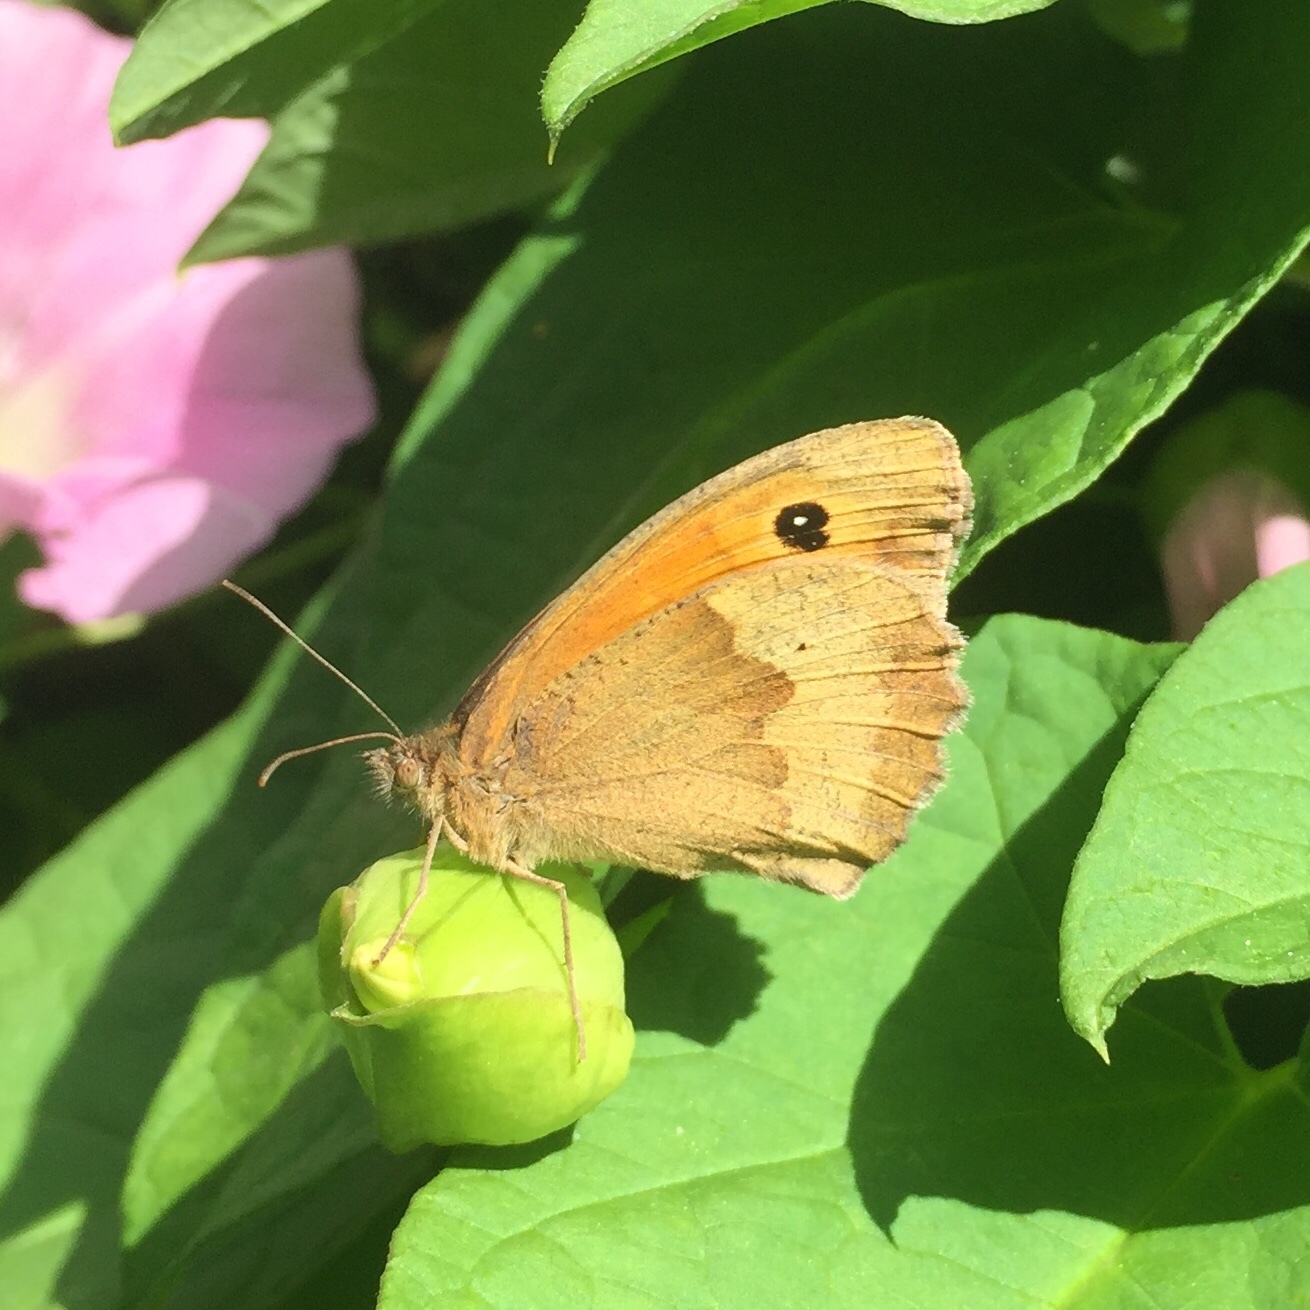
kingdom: Animalia
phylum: Arthropoda
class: Insecta
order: Lepidoptera
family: Nymphalidae
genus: Maniola
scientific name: Maniola jurtina
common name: Meadow brown
